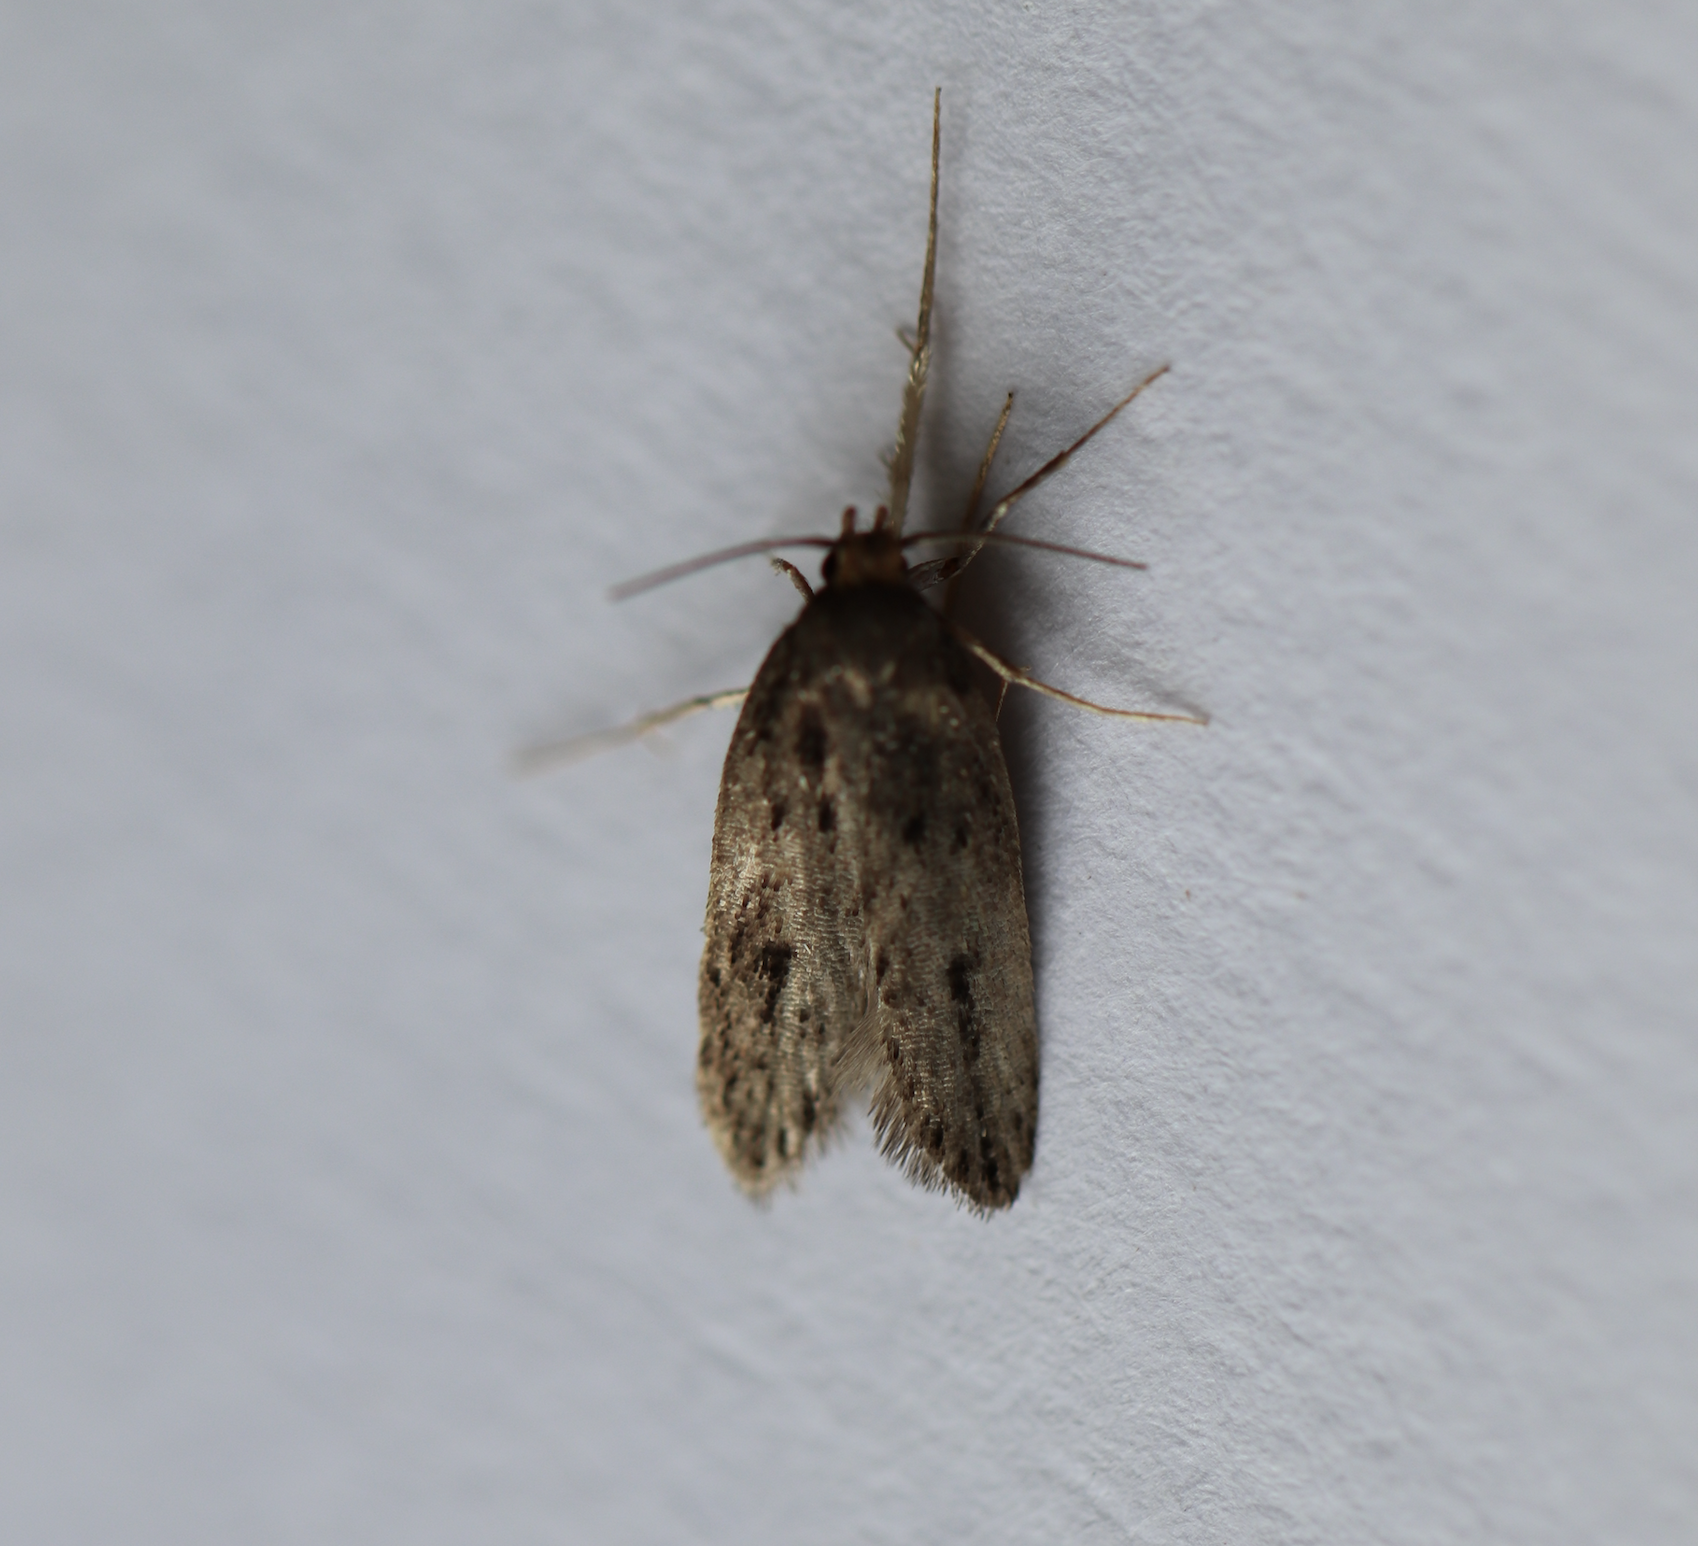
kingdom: Animalia
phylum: Arthropoda
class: Insecta
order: Lepidoptera
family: Oecophoridae
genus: Hofmannophila
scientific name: Hofmannophila pseudospretella
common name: Brown house moth
